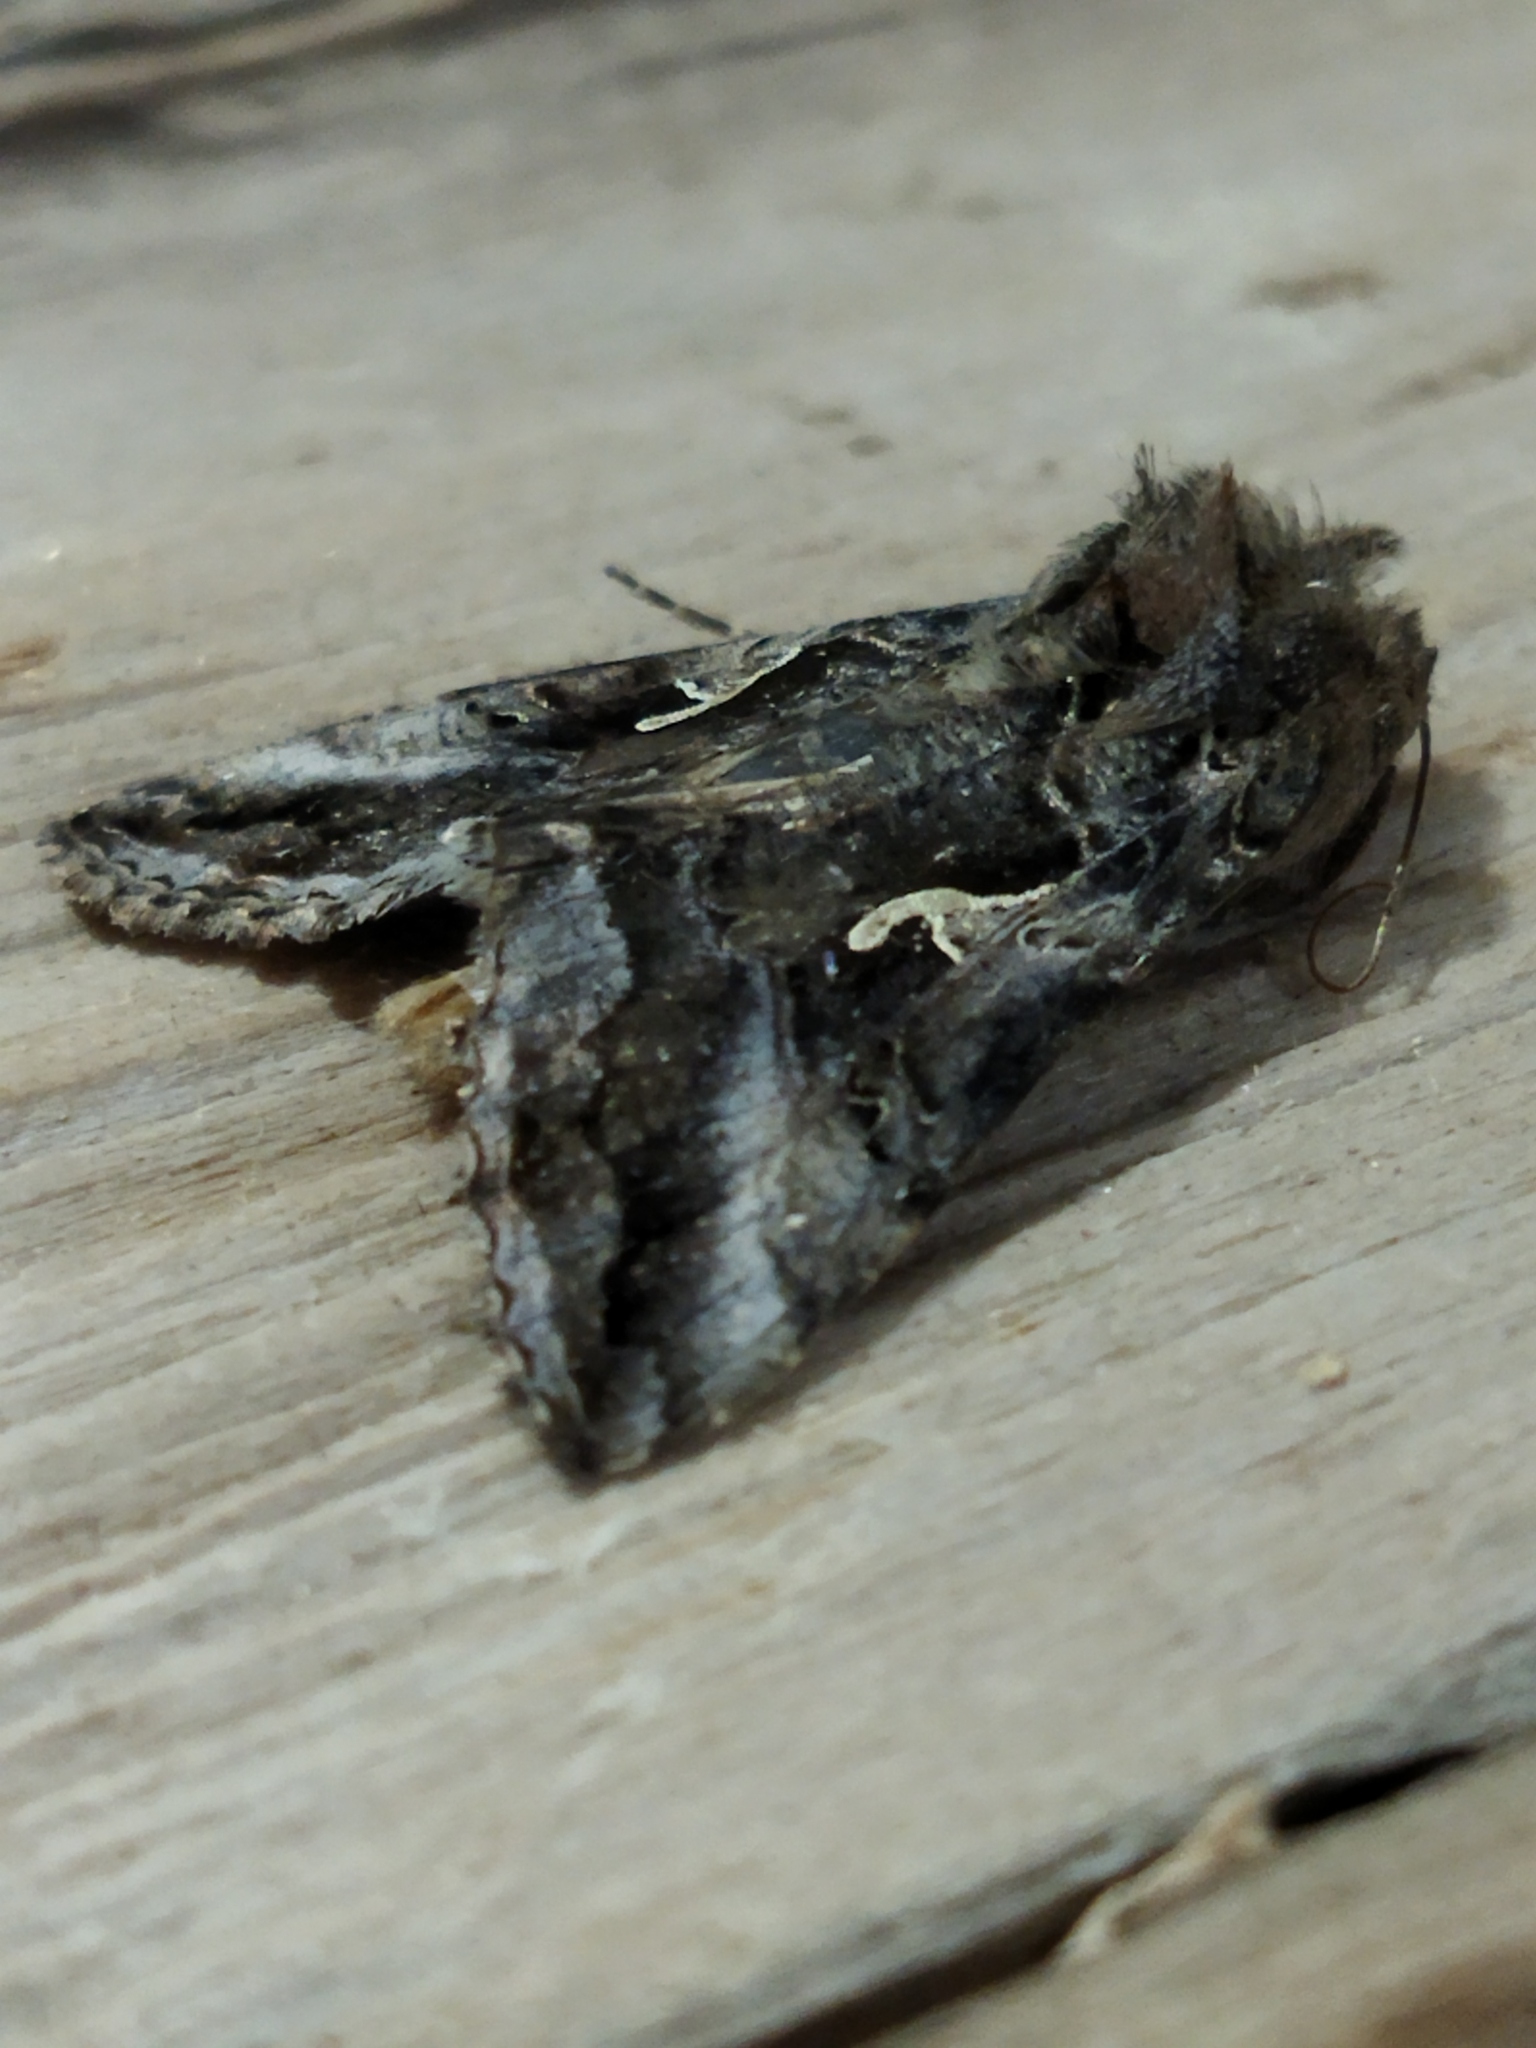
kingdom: Animalia
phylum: Arthropoda
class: Insecta
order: Lepidoptera
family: Noctuidae
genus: Autographa
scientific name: Autographa gamma
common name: Silver y
